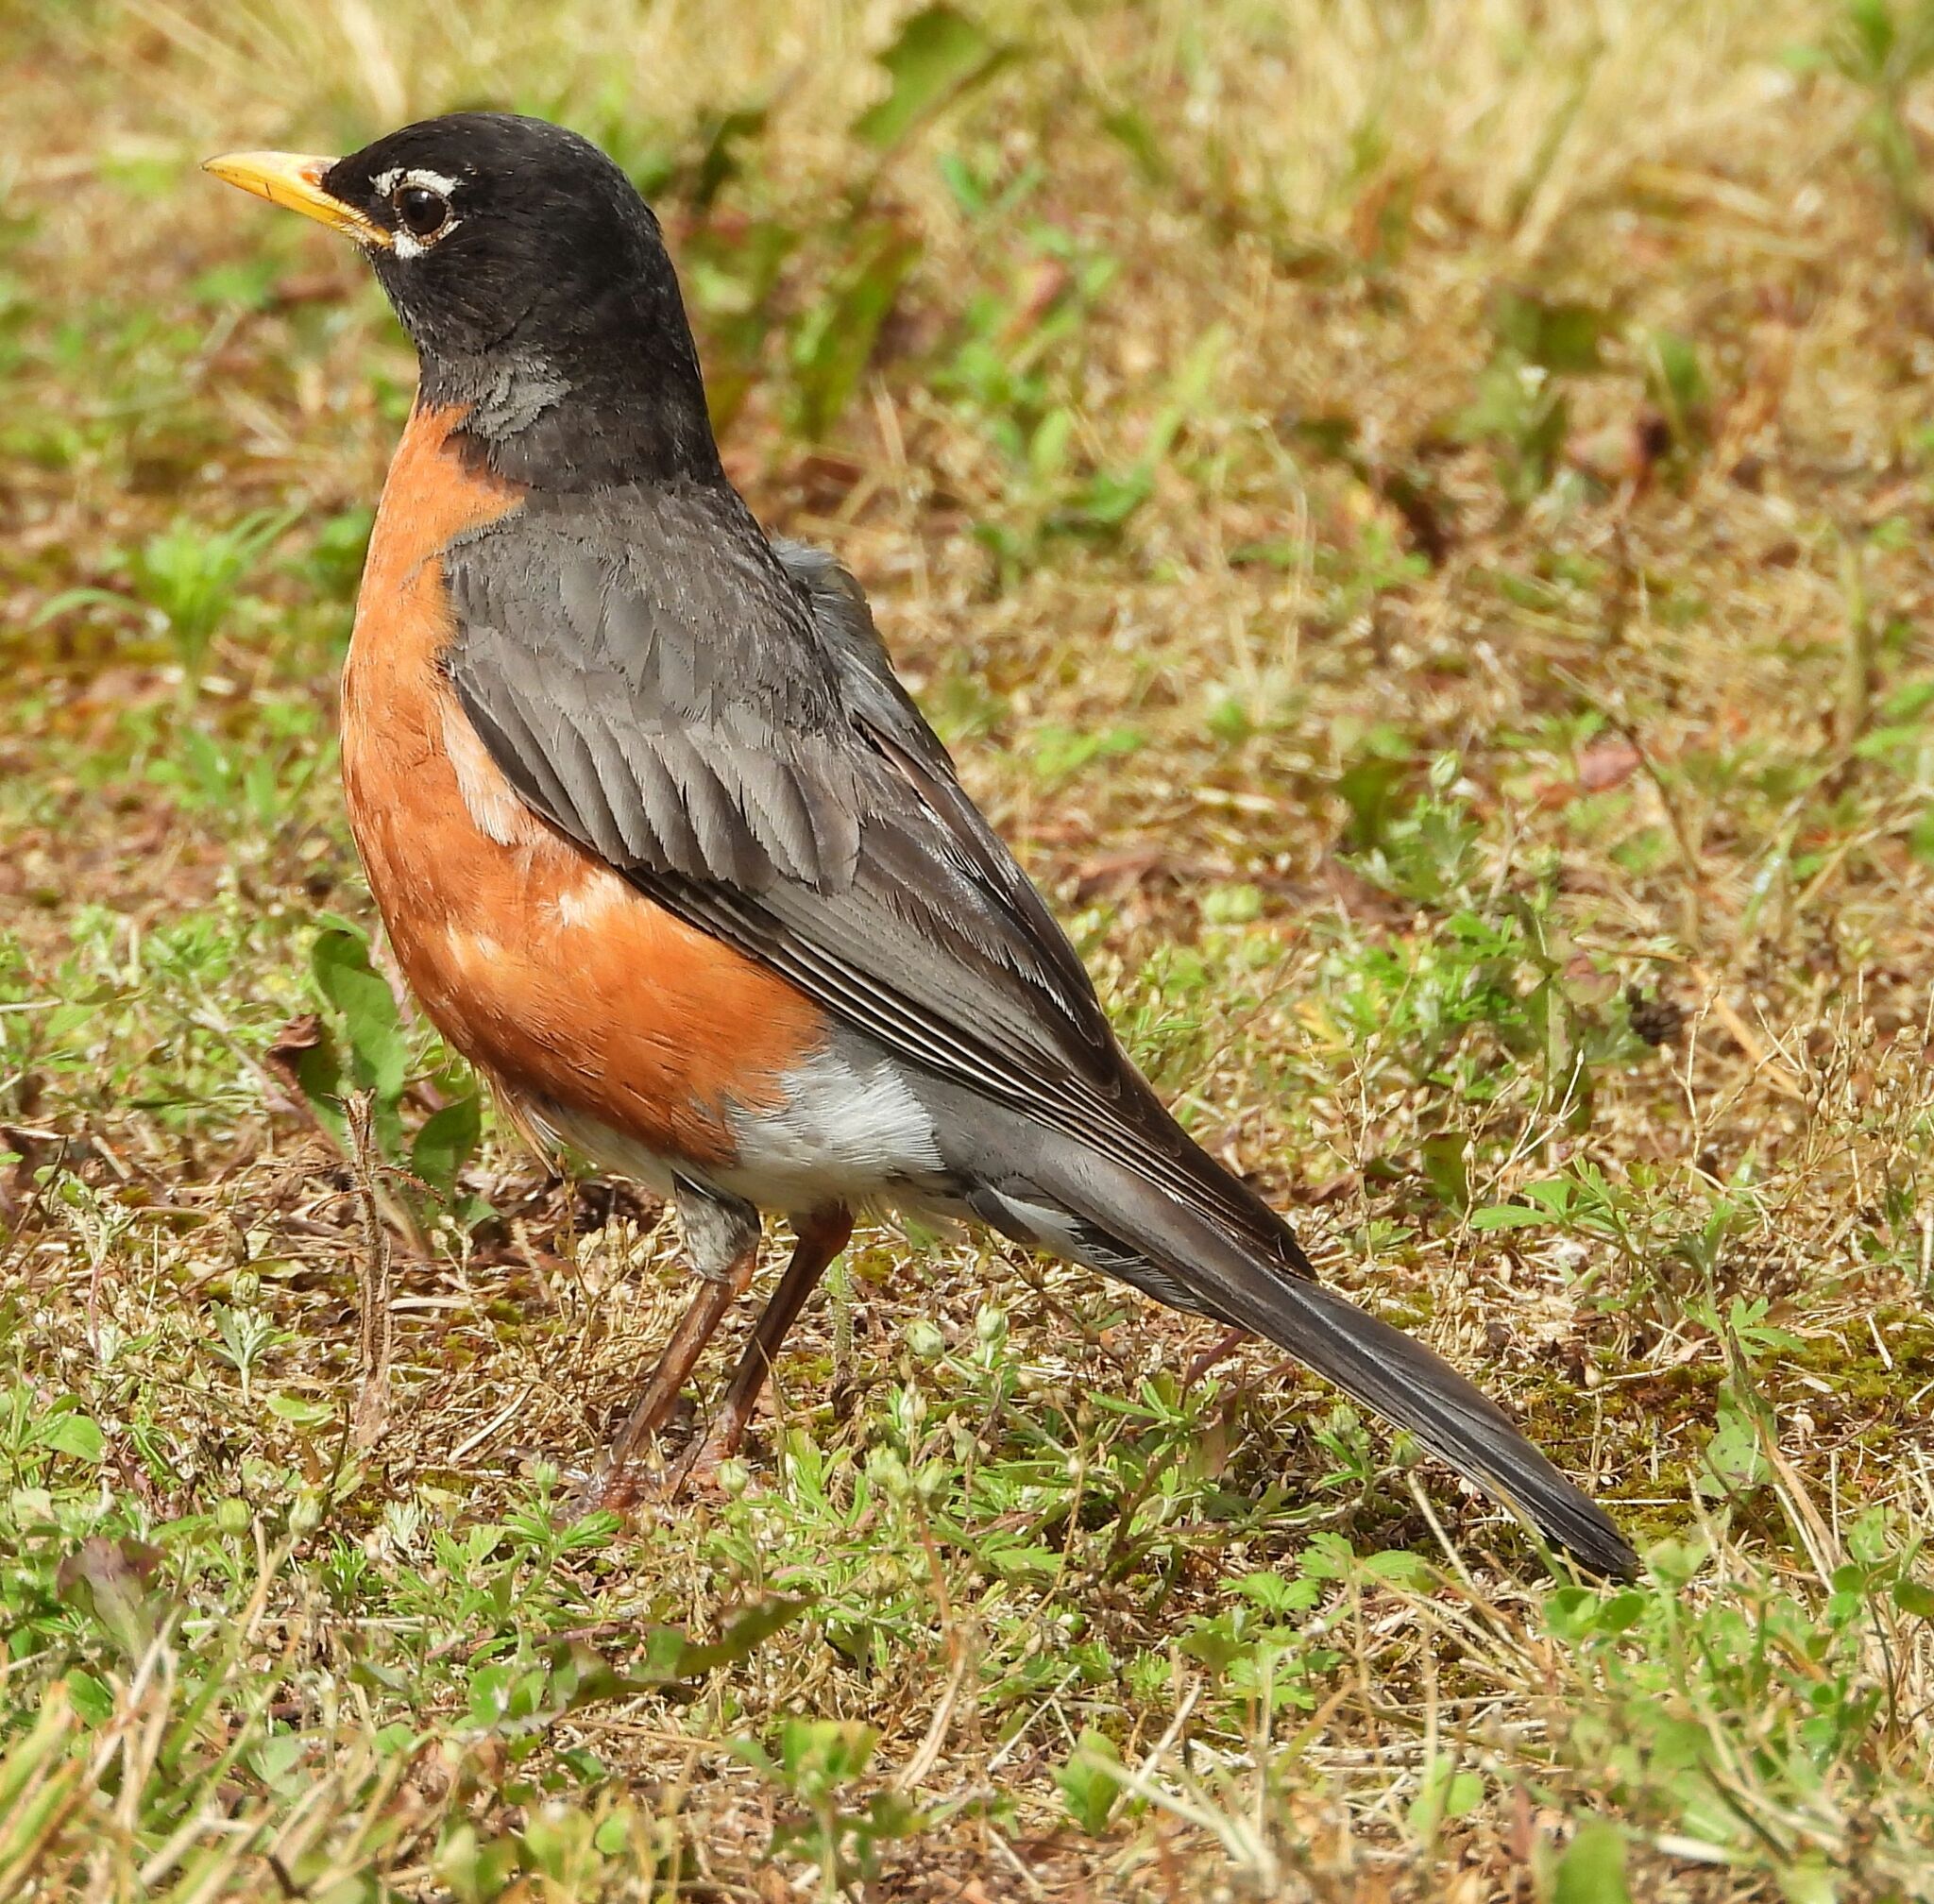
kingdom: Animalia
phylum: Chordata
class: Aves
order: Passeriformes
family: Turdidae
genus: Turdus
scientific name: Turdus migratorius
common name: American robin
